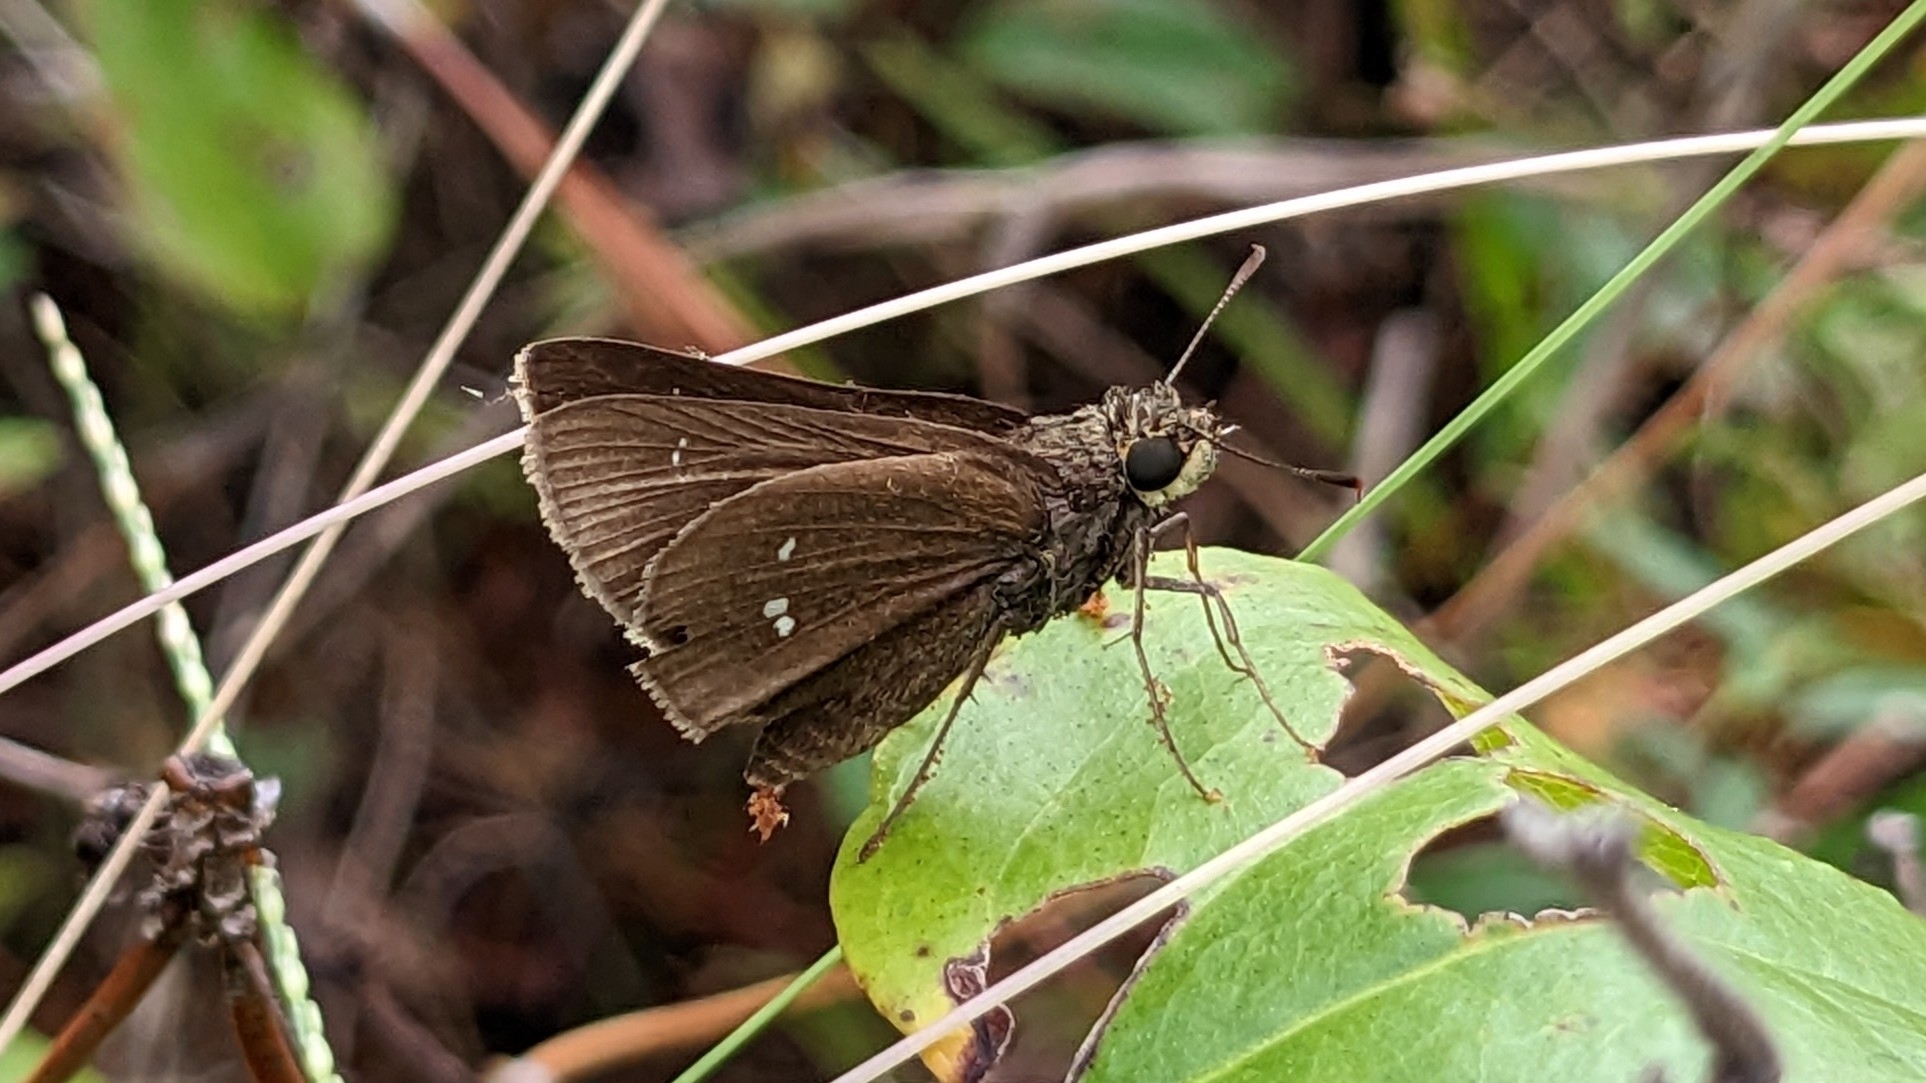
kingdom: Animalia
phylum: Arthropoda
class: Insecta
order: Lepidoptera
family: Hesperiidae
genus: Oligoria
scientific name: Oligoria maculata
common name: Twin-spot skipper
